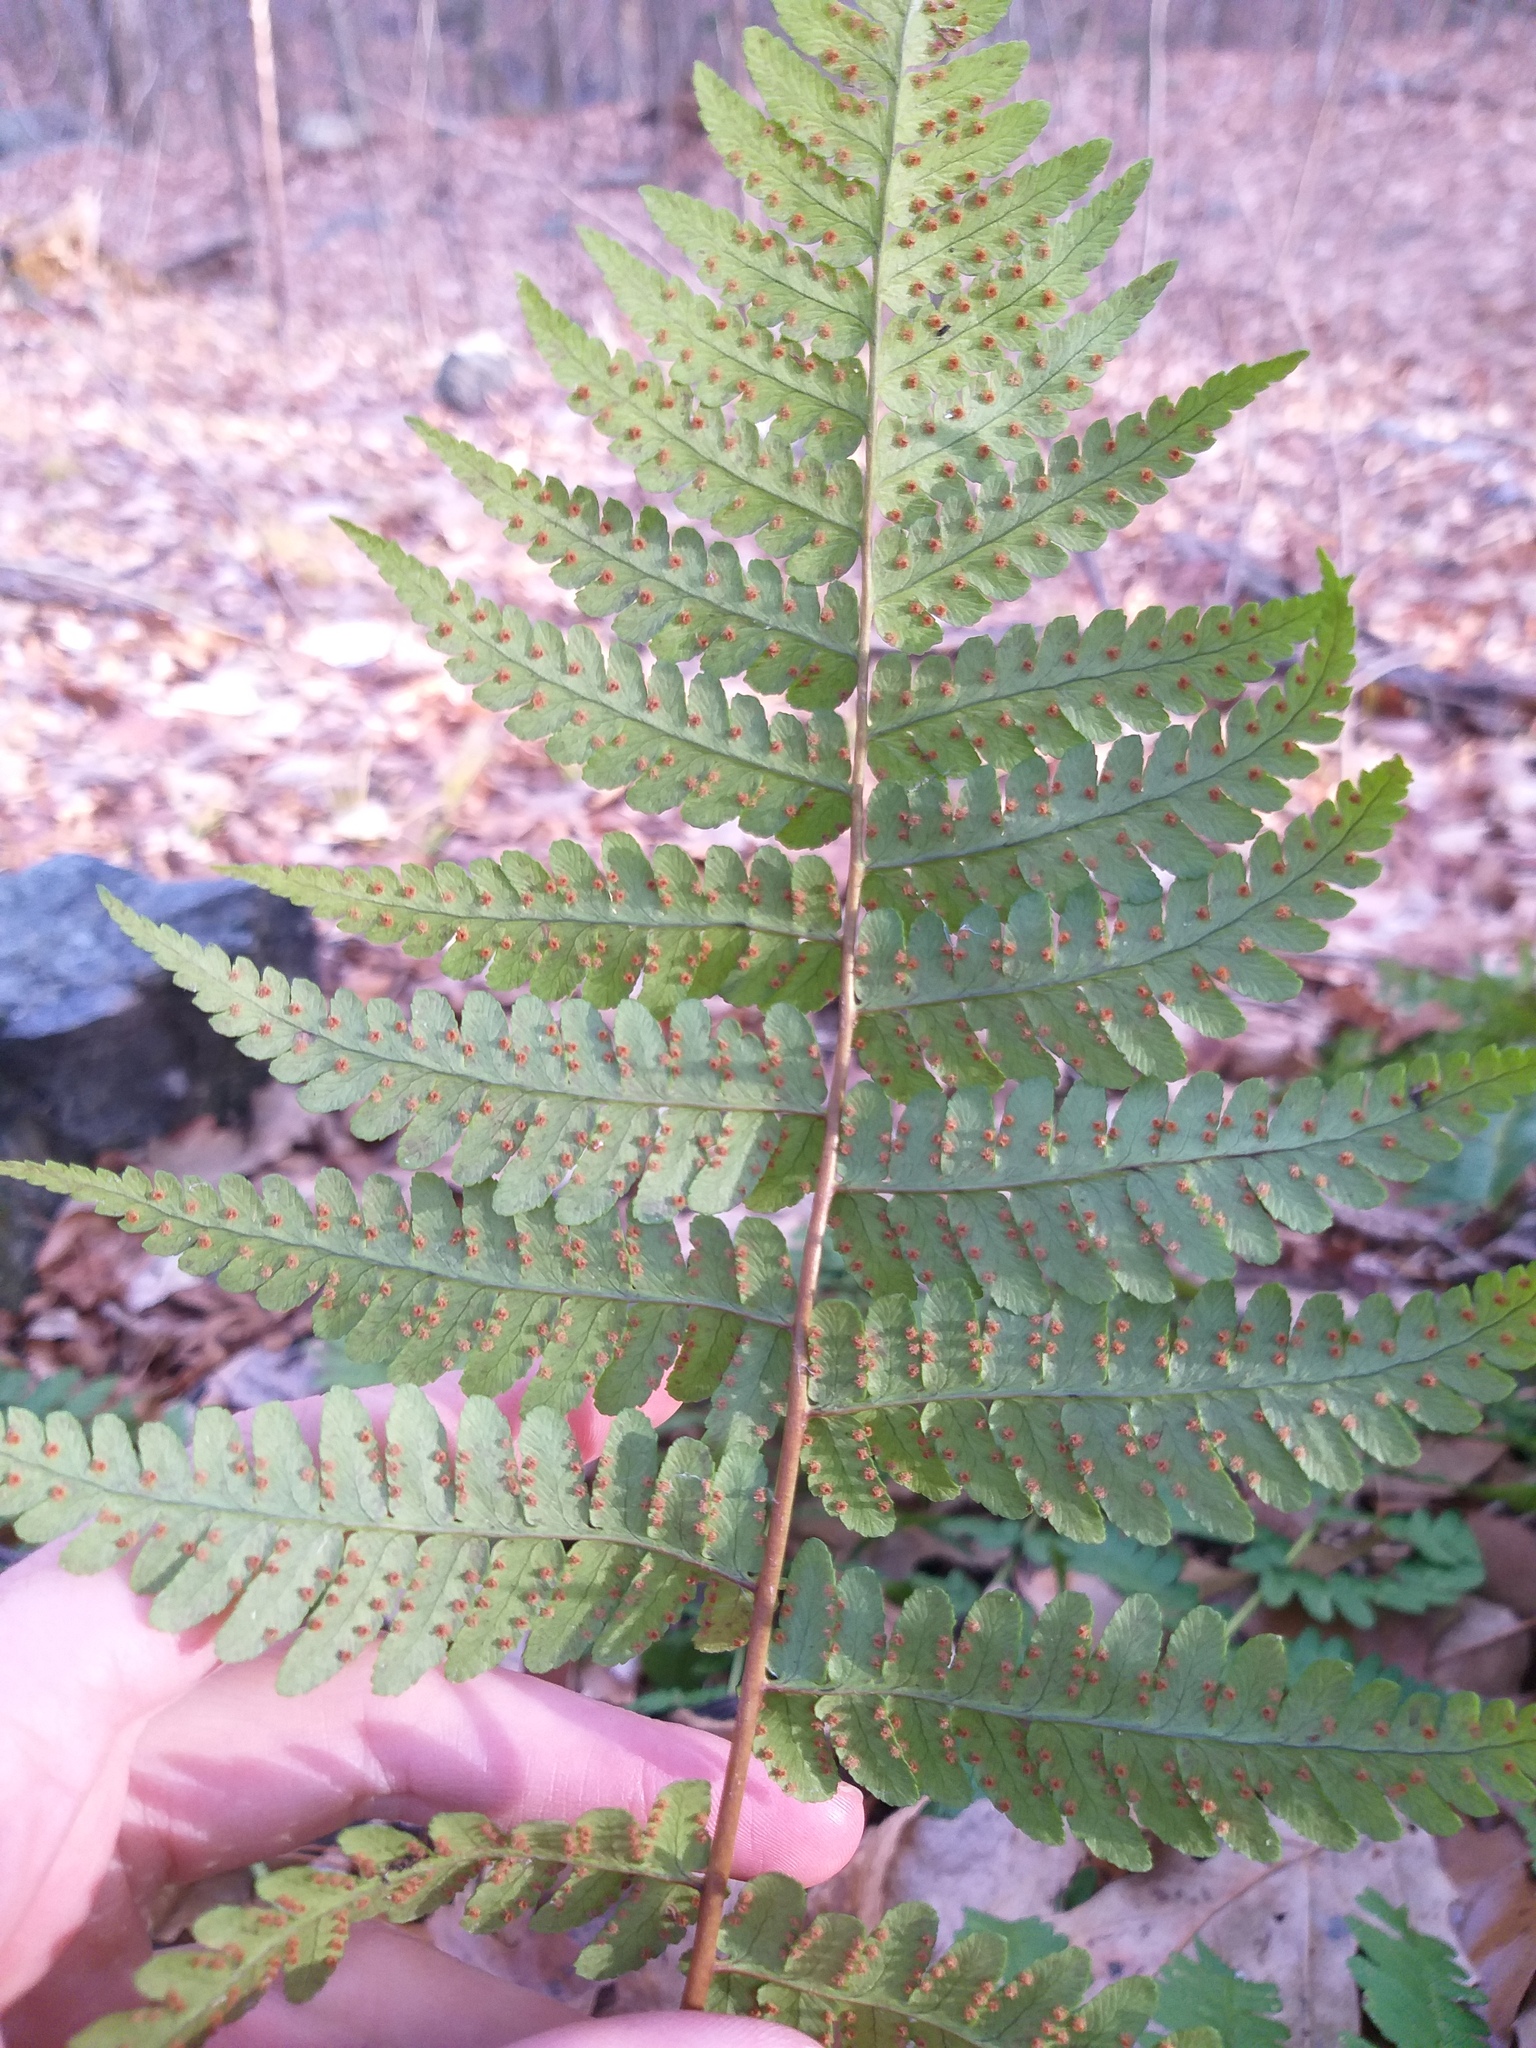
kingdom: Plantae
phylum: Tracheophyta
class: Polypodiopsida
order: Polypodiales
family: Dryopteridaceae
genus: Dryopteris
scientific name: Dryopteris marginalis
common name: Marginal wood fern
